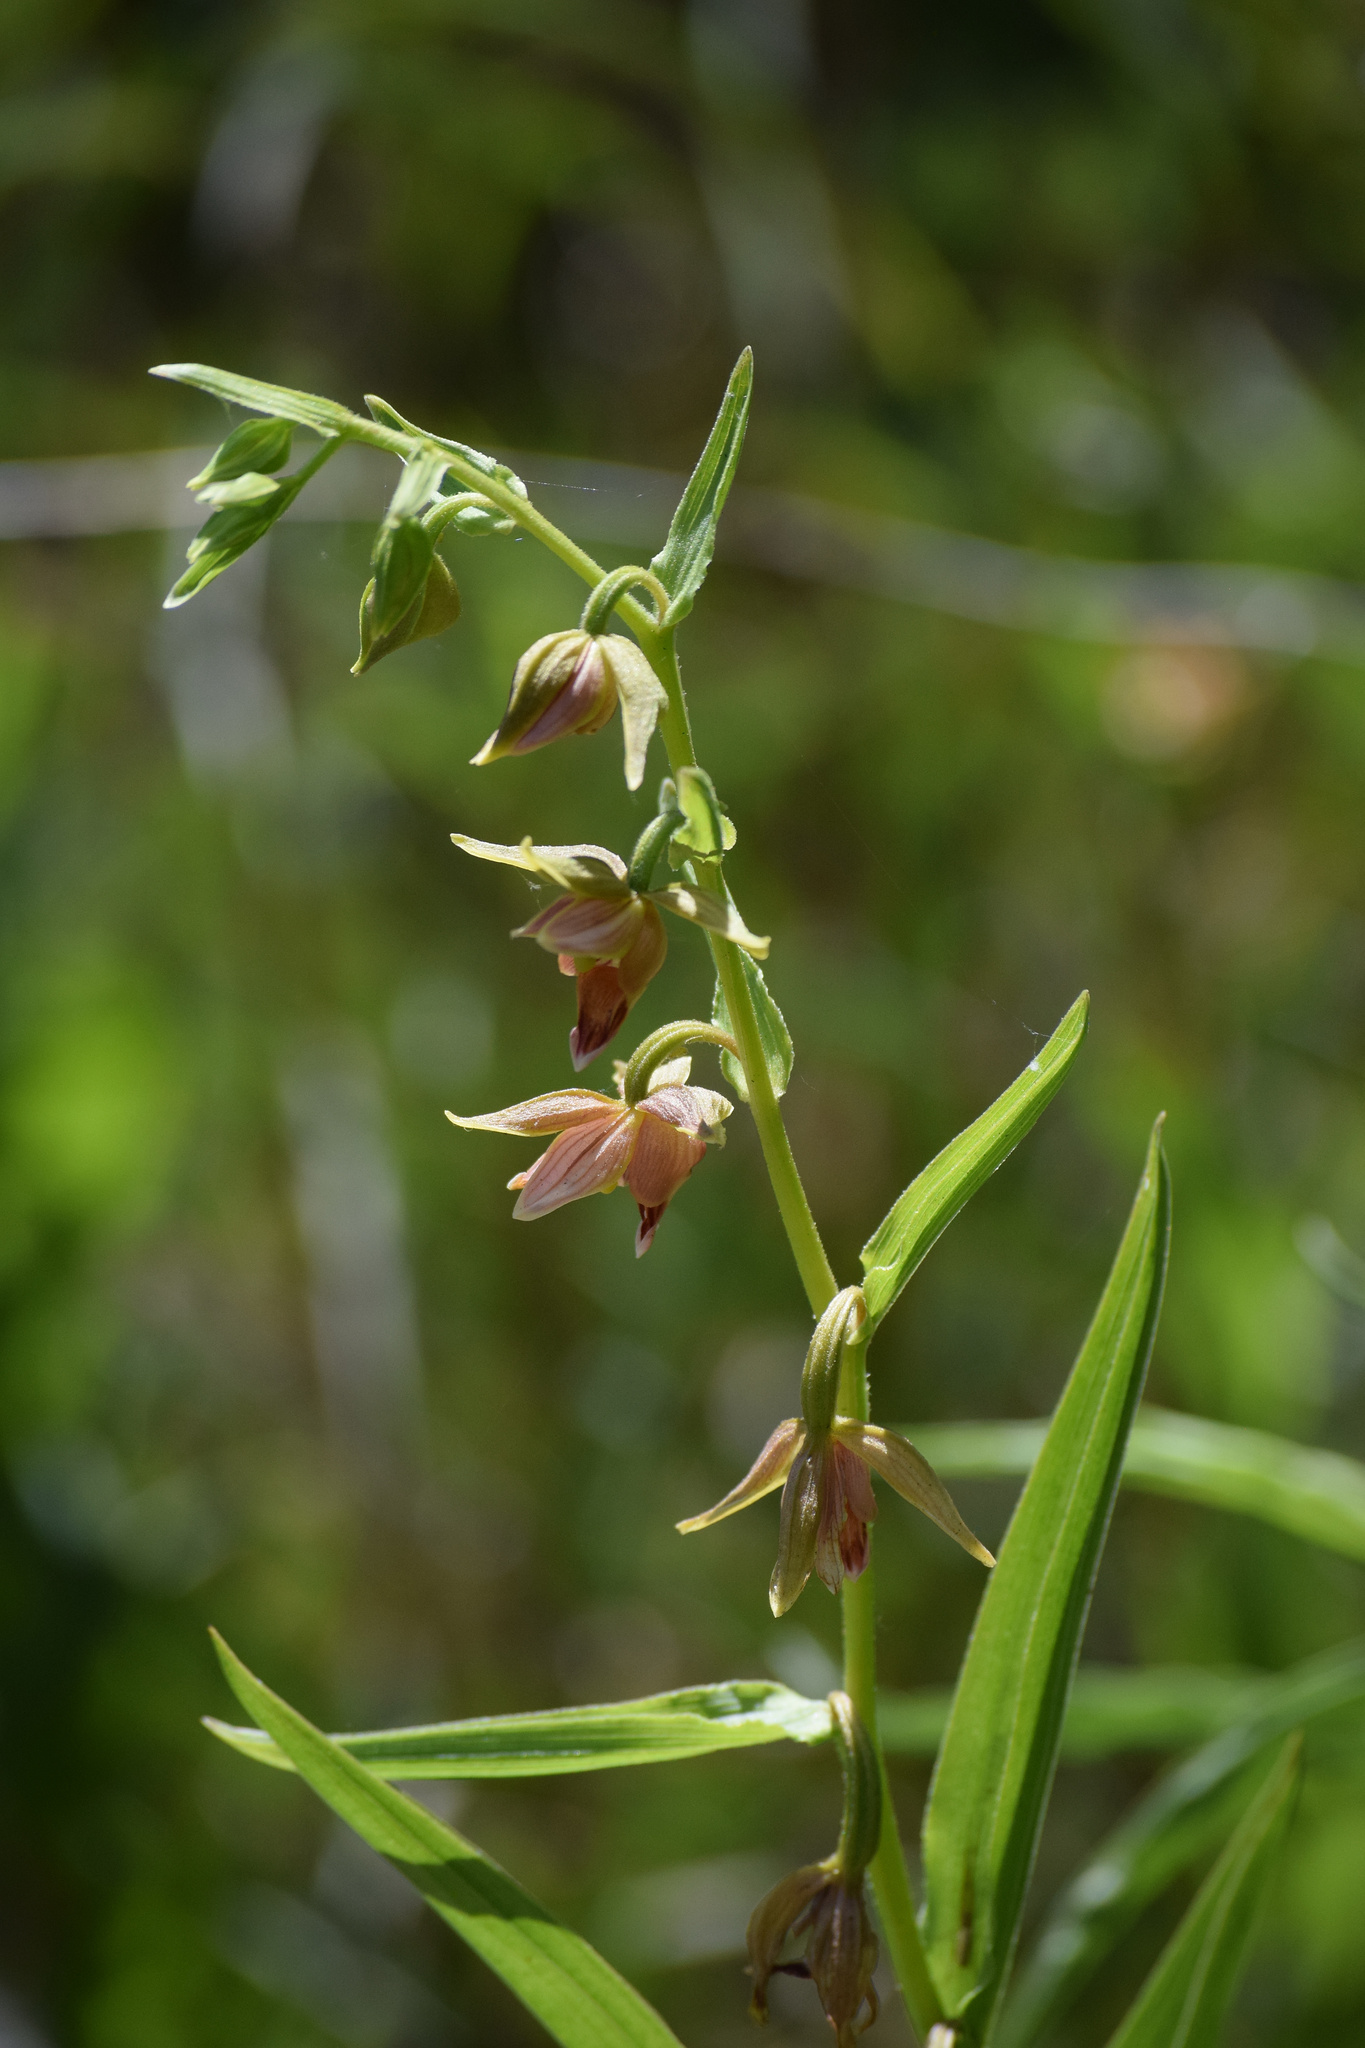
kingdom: Plantae
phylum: Tracheophyta
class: Liliopsida
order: Asparagales
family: Orchidaceae
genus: Epipactis
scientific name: Epipactis gigantea
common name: Chatterbox
